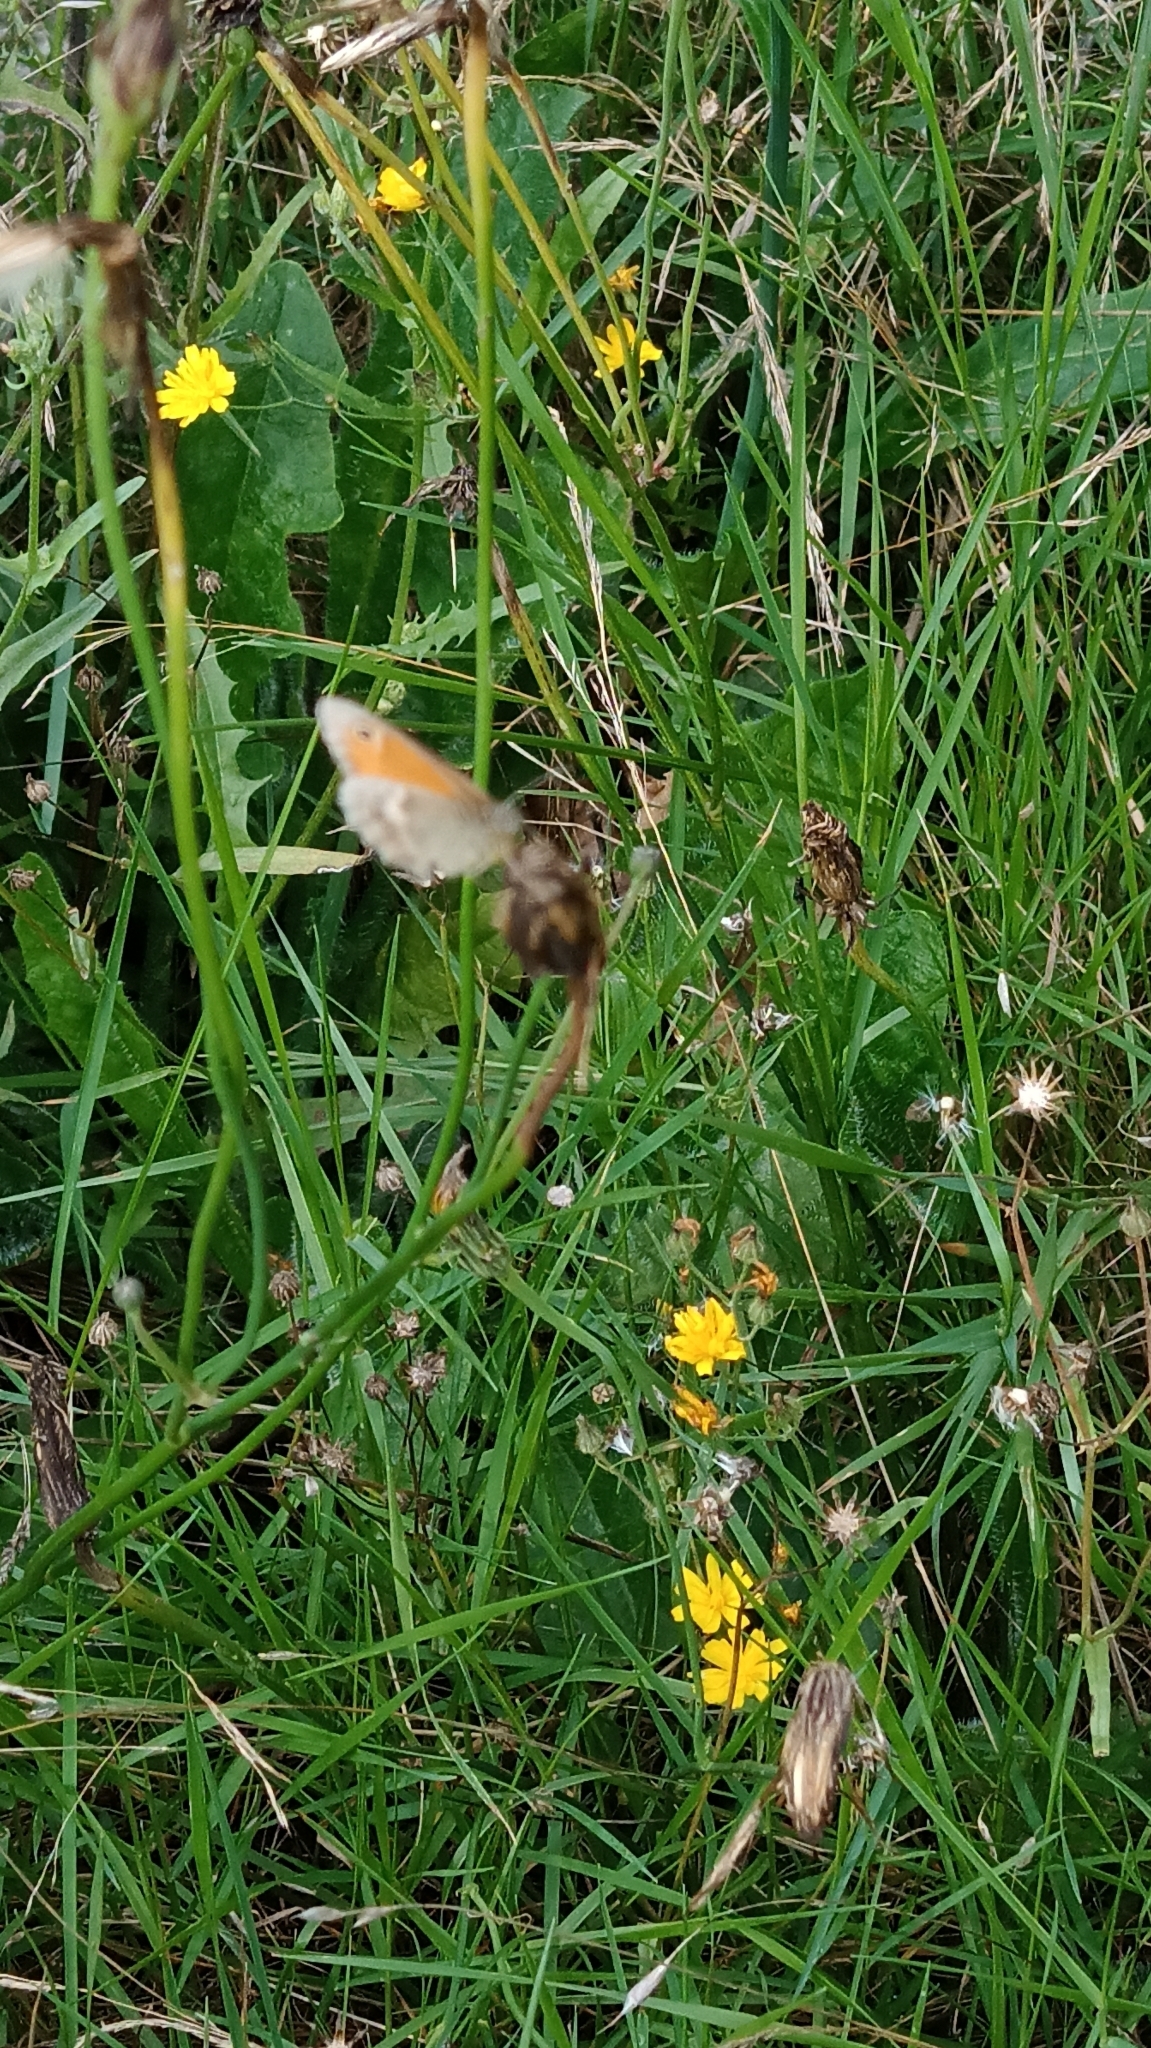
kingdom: Animalia
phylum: Arthropoda
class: Insecta
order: Lepidoptera
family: Nymphalidae
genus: Coenonympha
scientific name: Coenonympha pamphilus
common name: Small heath
